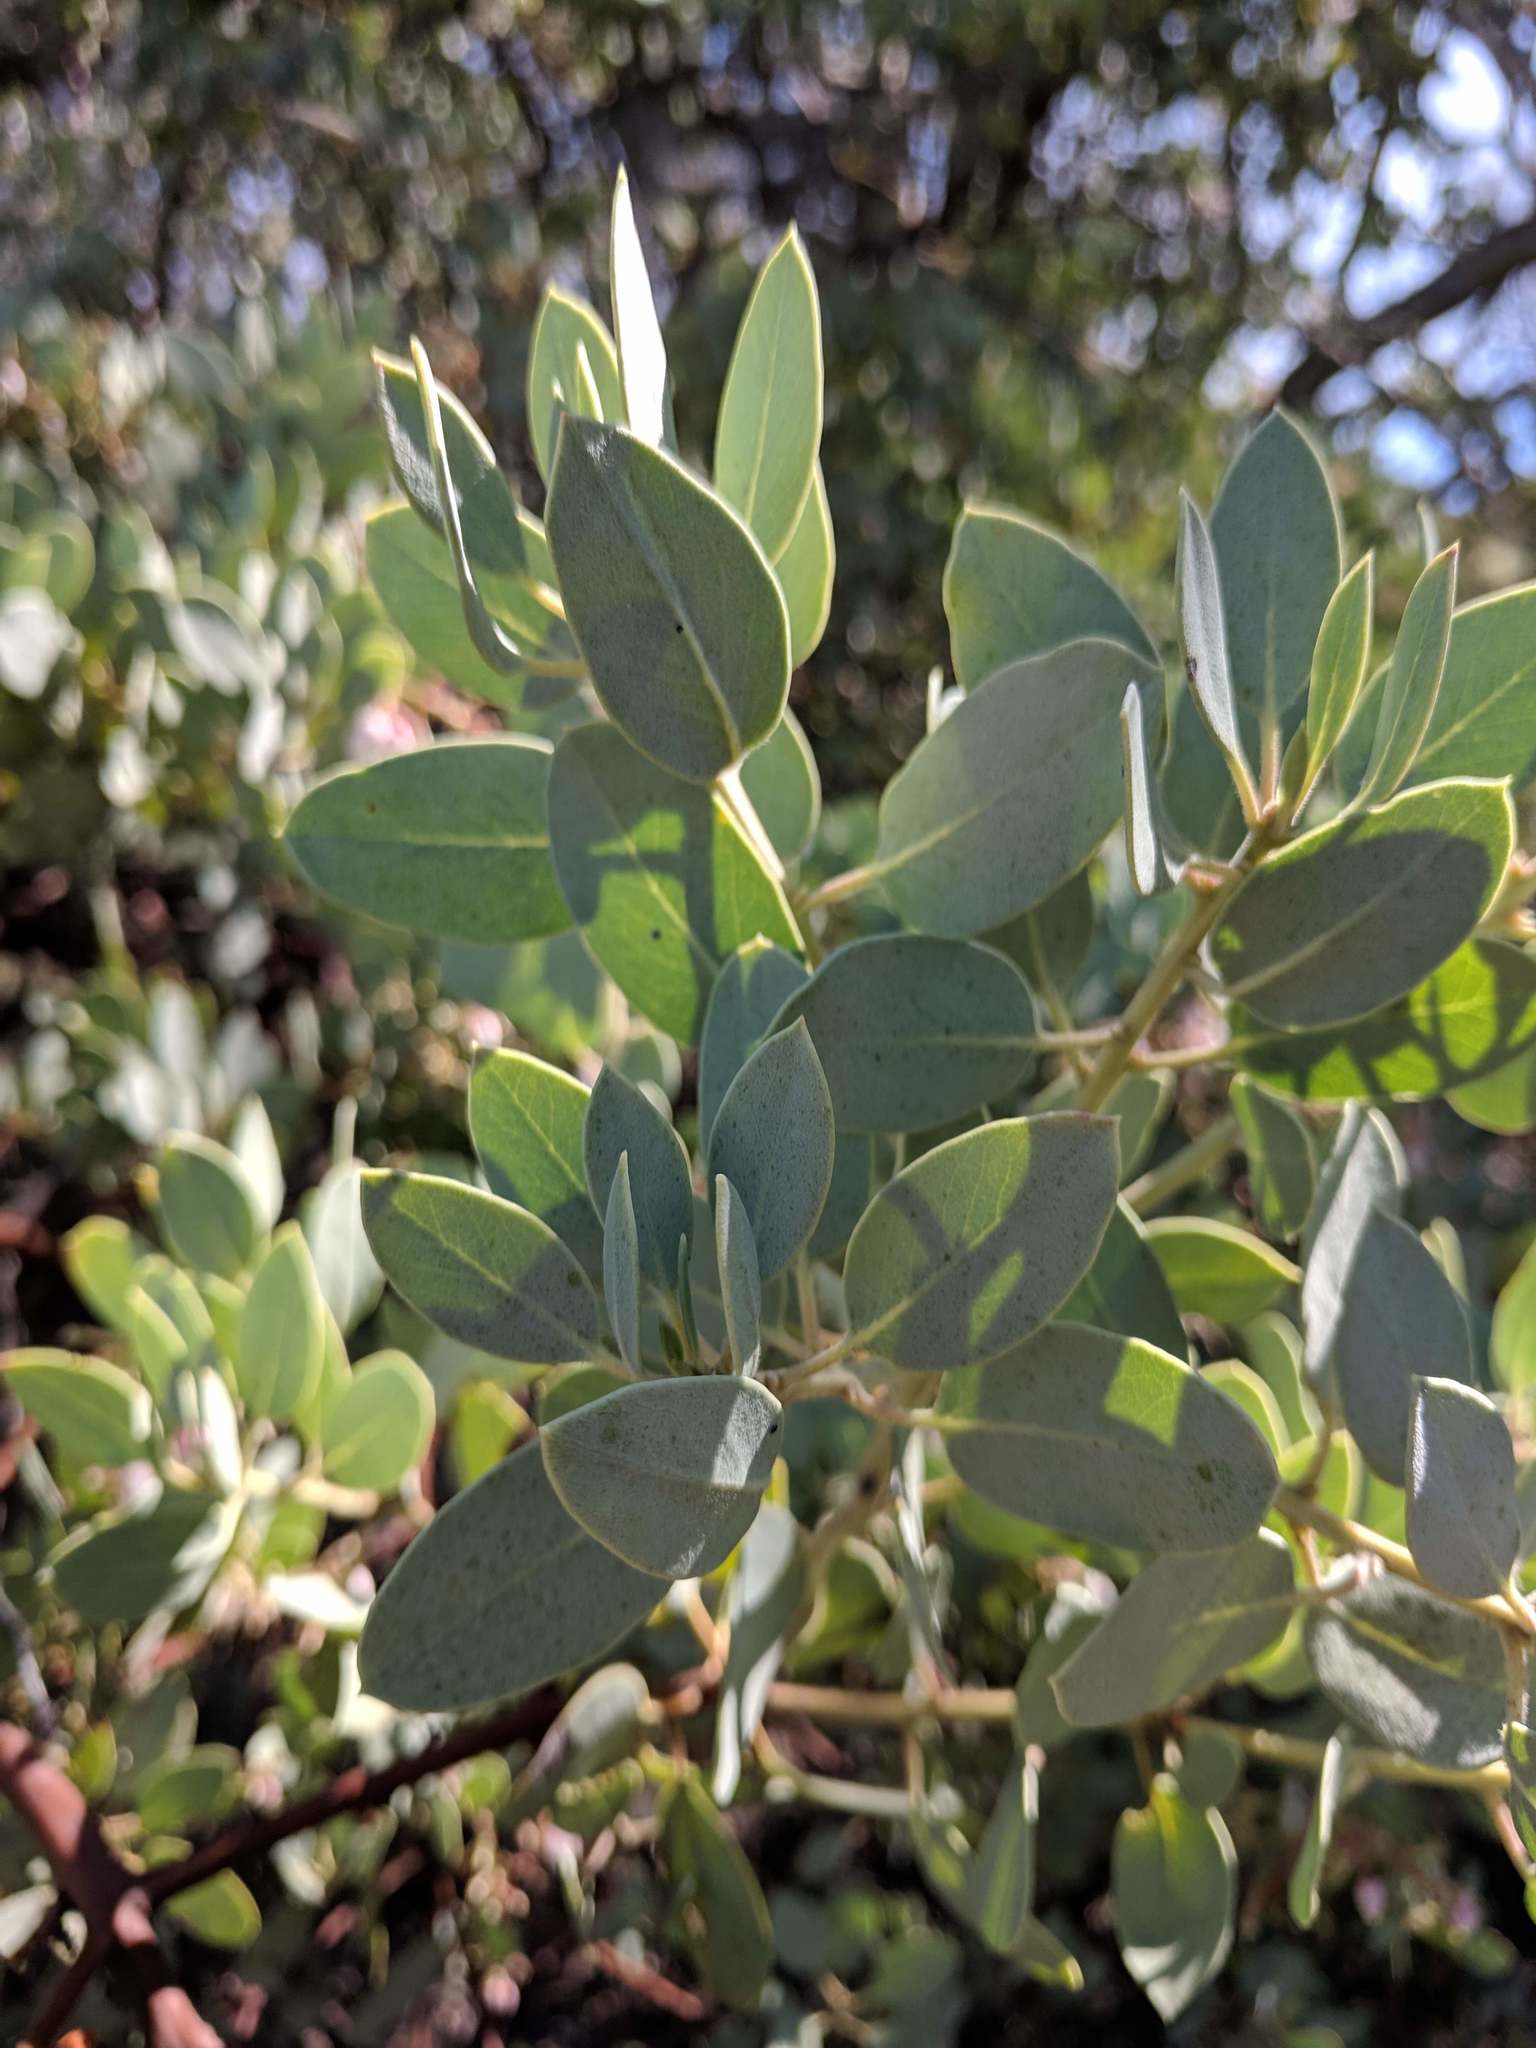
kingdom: Plantae
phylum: Tracheophyta
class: Magnoliopsida
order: Ericales
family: Ericaceae
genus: Arctostaphylos
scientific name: Arctostaphylos glauca
